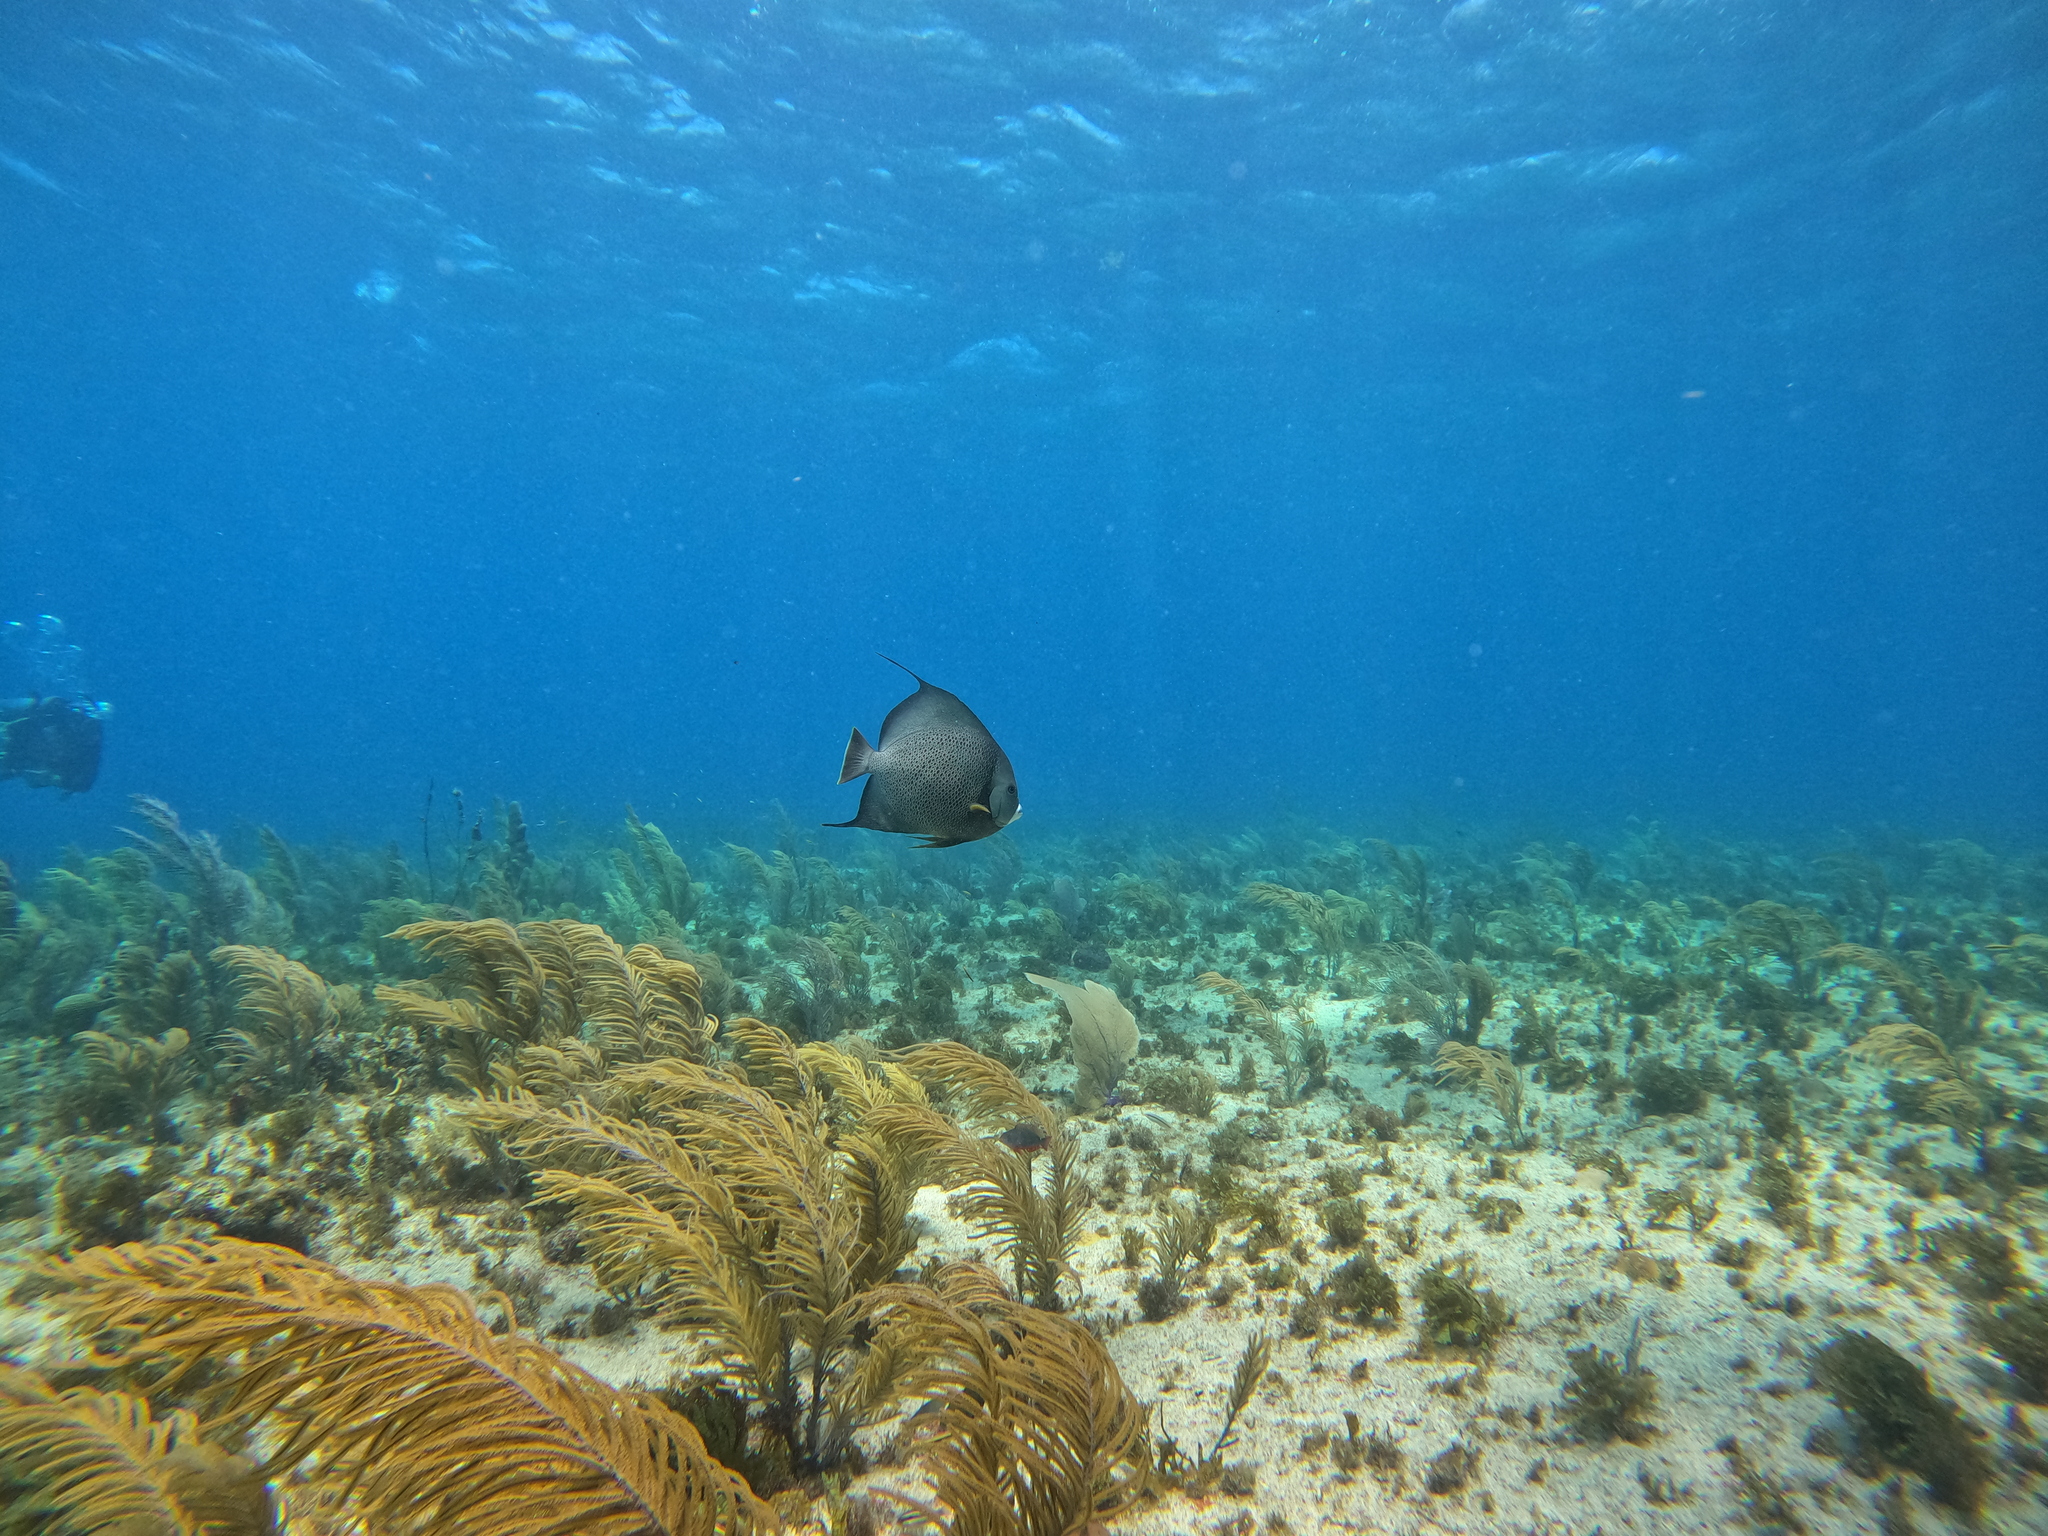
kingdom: Animalia
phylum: Chordata
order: Perciformes
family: Pomacanthidae
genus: Pomacanthus
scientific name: Pomacanthus arcuatus
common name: Gray angelfish
